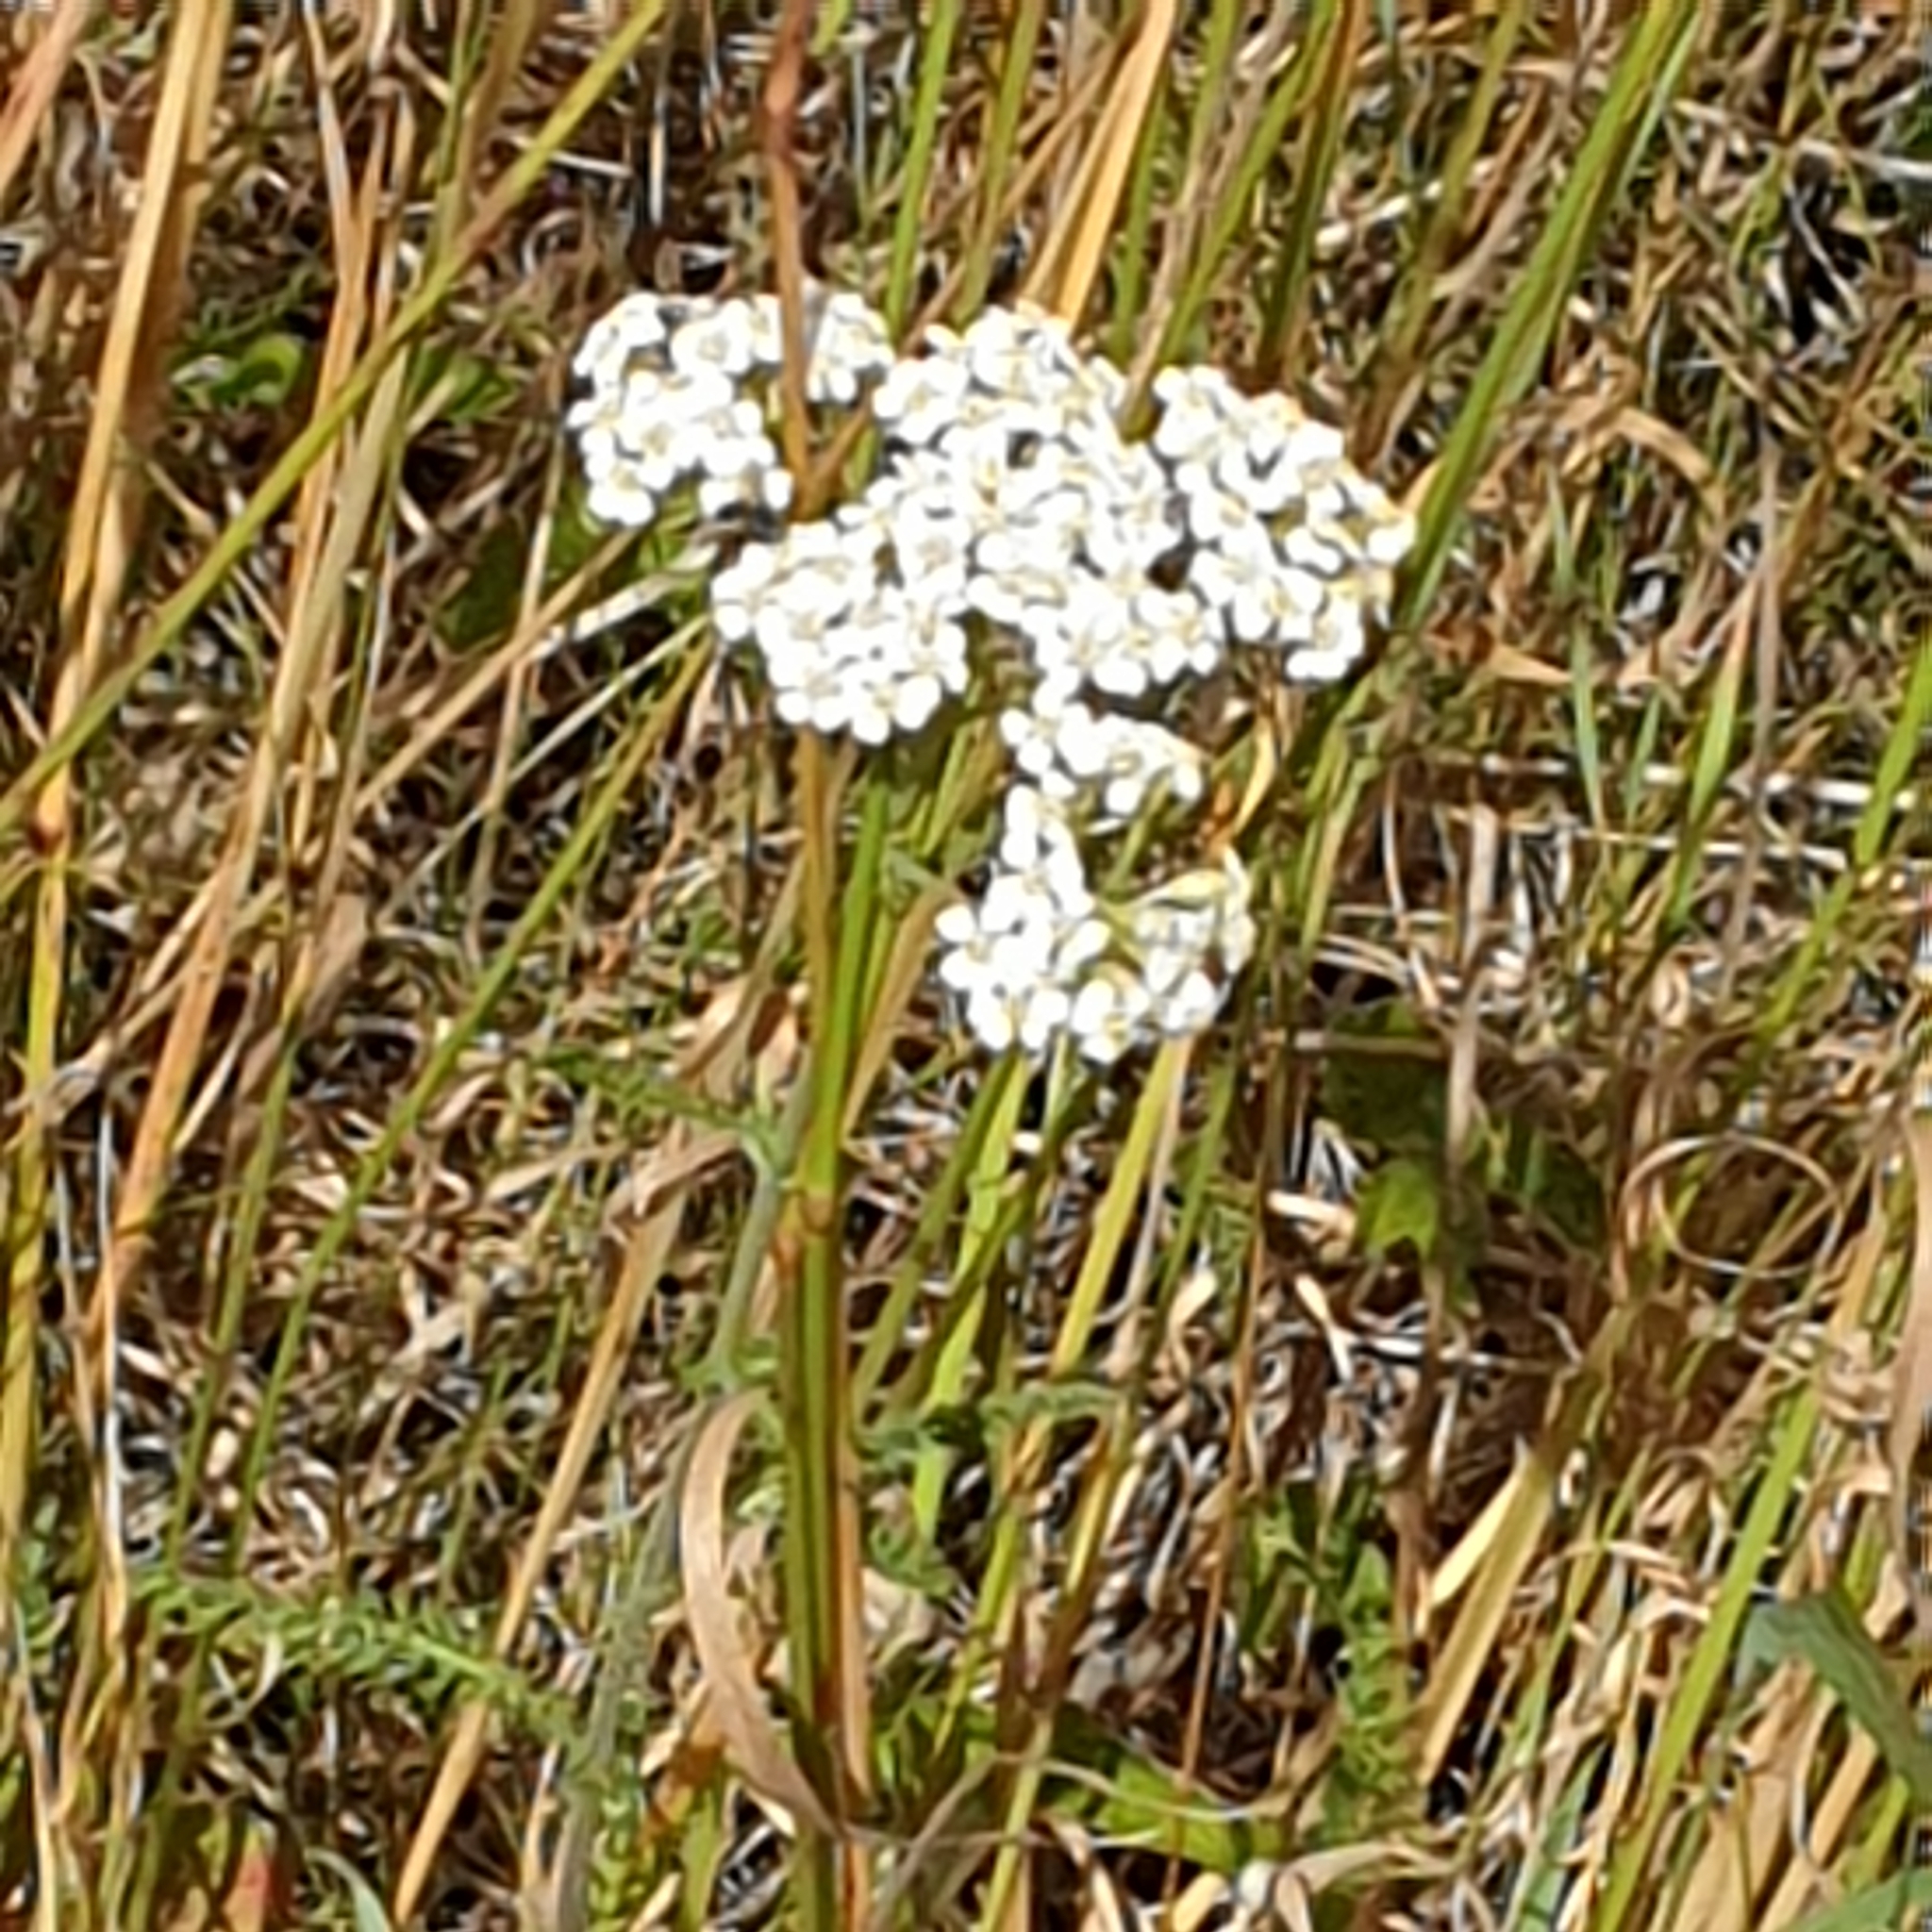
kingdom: Plantae
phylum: Tracheophyta
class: Magnoliopsida
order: Asterales
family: Asteraceae
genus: Achillea
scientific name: Achillea millefolium
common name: Yarrow
